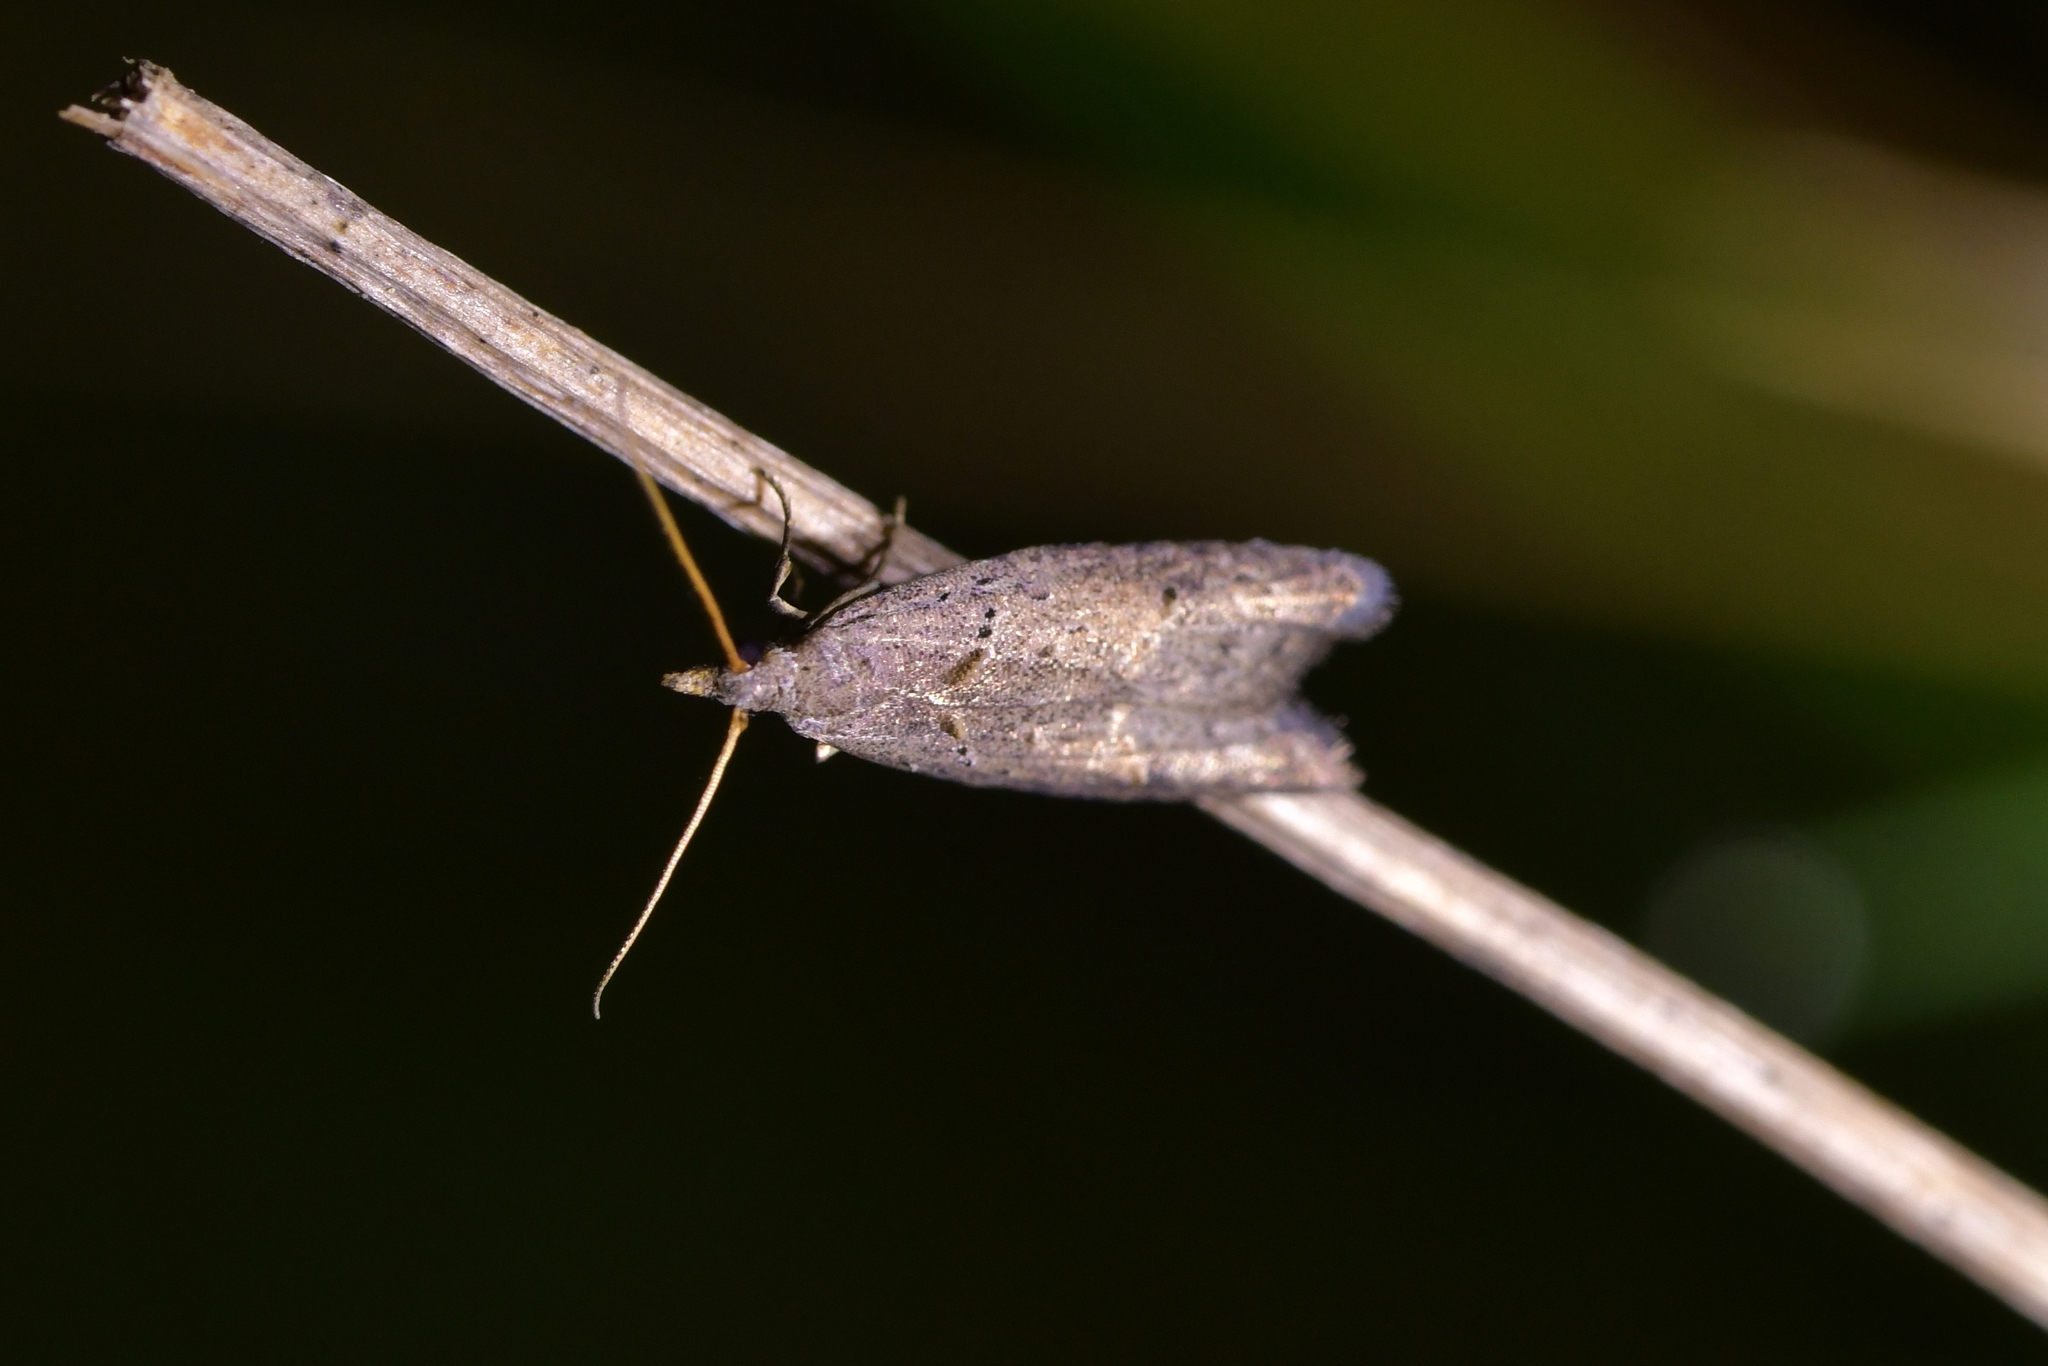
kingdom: Animalia
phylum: Arthropoda
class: Insecta
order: Lepidoptera
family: Carposinidae
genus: Carposina
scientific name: Carposina rubophaga
